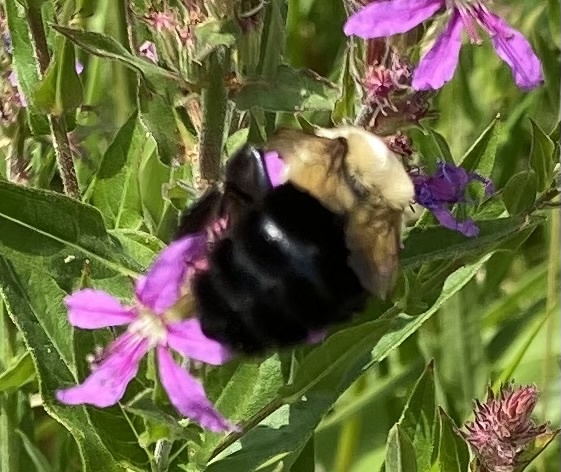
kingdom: Animalia
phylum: Arthropoda
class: Insecta
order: Hymenoptera
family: Apidae
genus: Bombus
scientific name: Bombus impatiens
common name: Common eastern bumble bee
